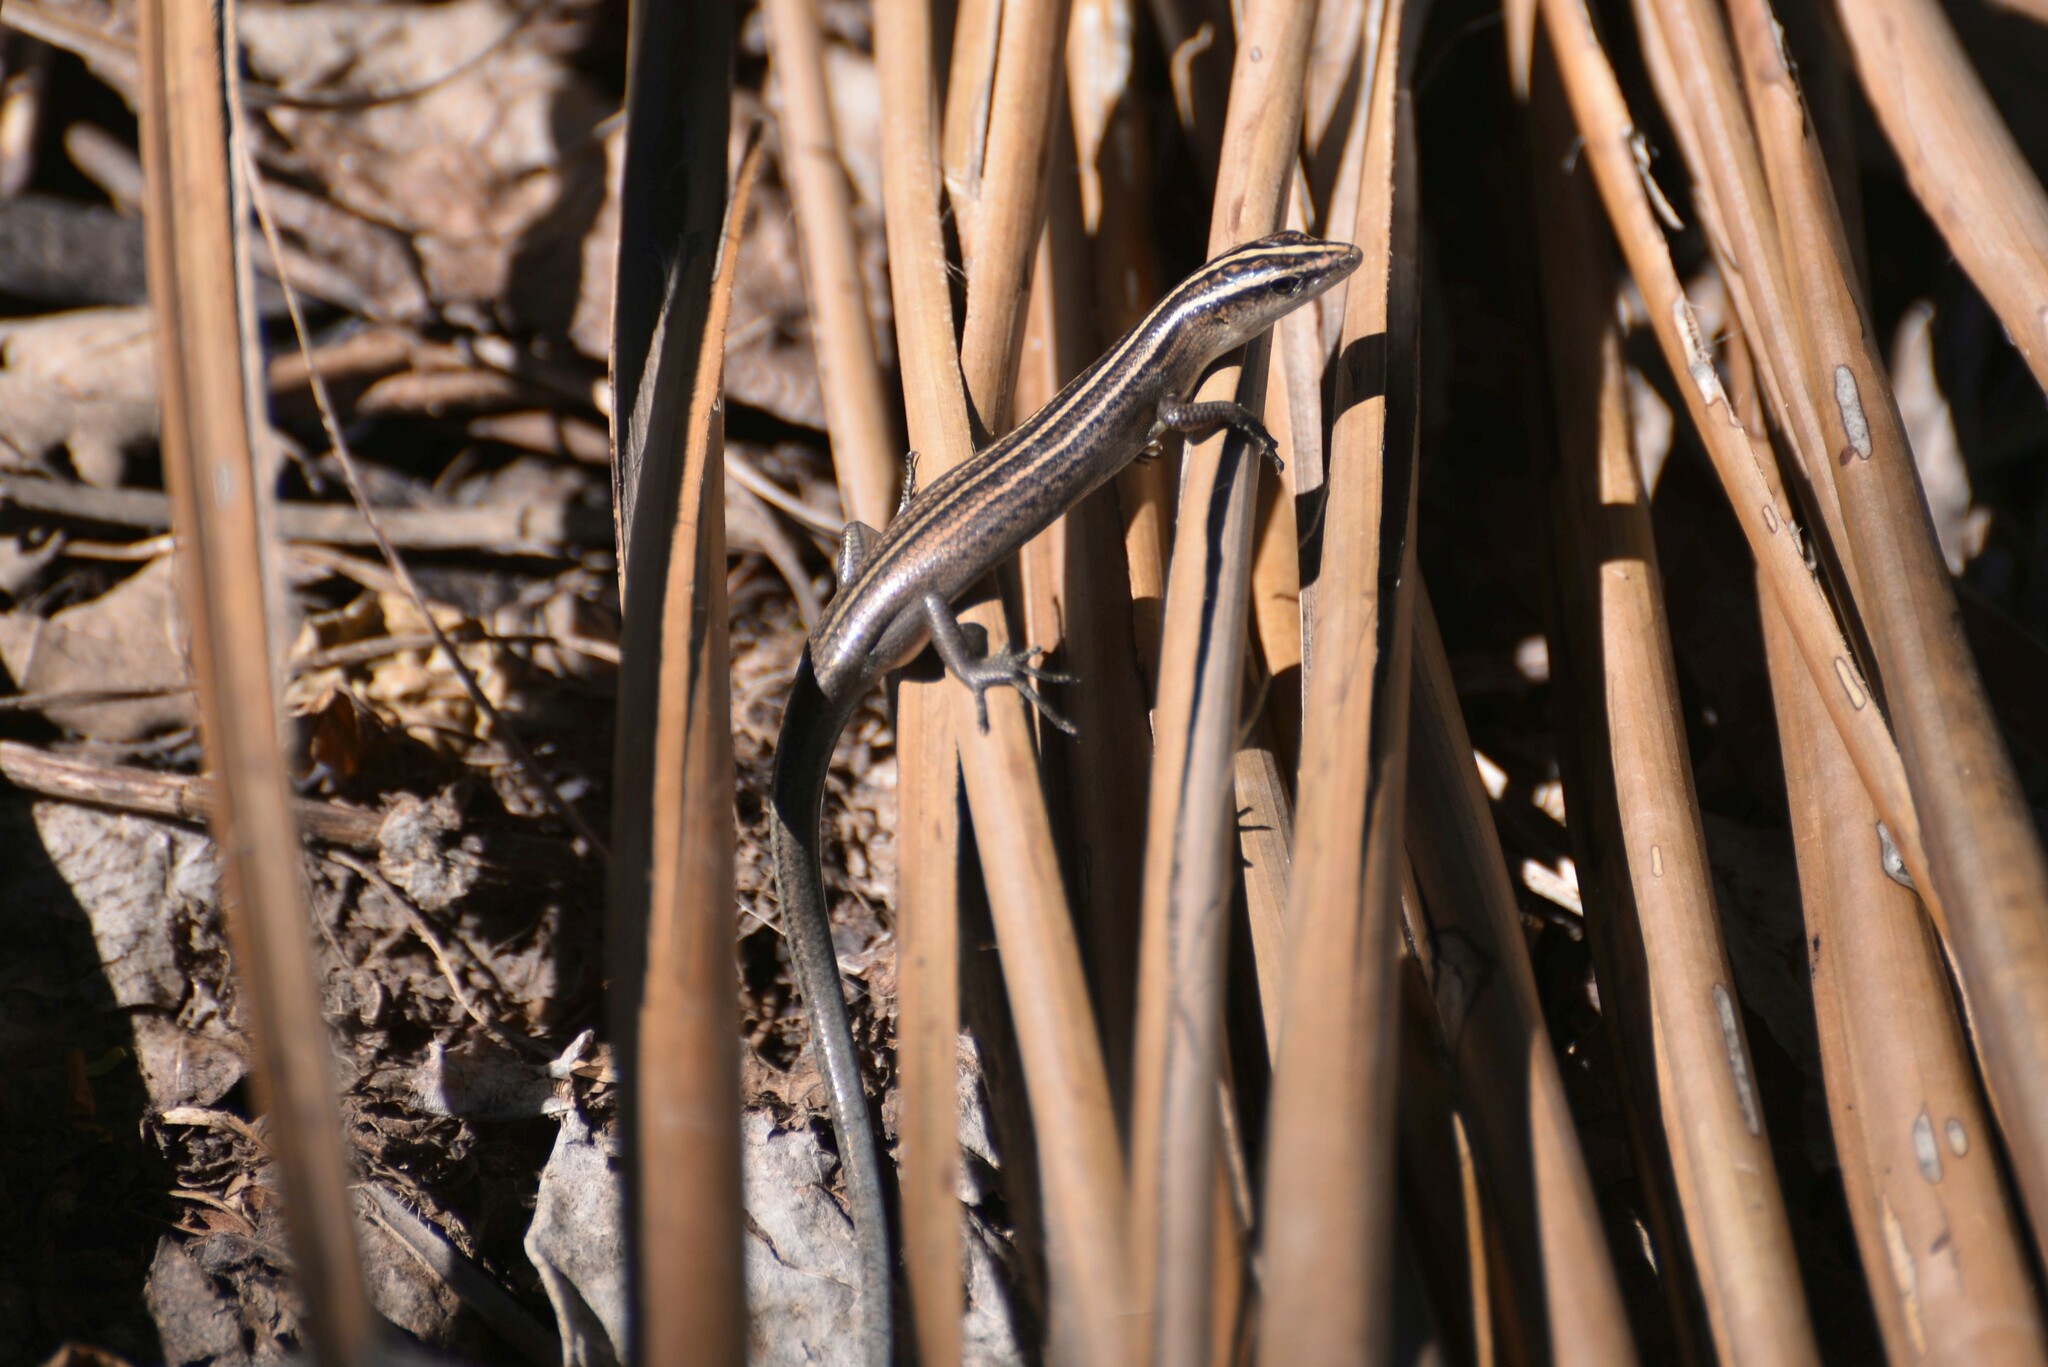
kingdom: Animalia
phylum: Chordata
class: Squamata
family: Scincidae
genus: Emoia
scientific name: Emoia cyanura
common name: Copper-tailed skink
